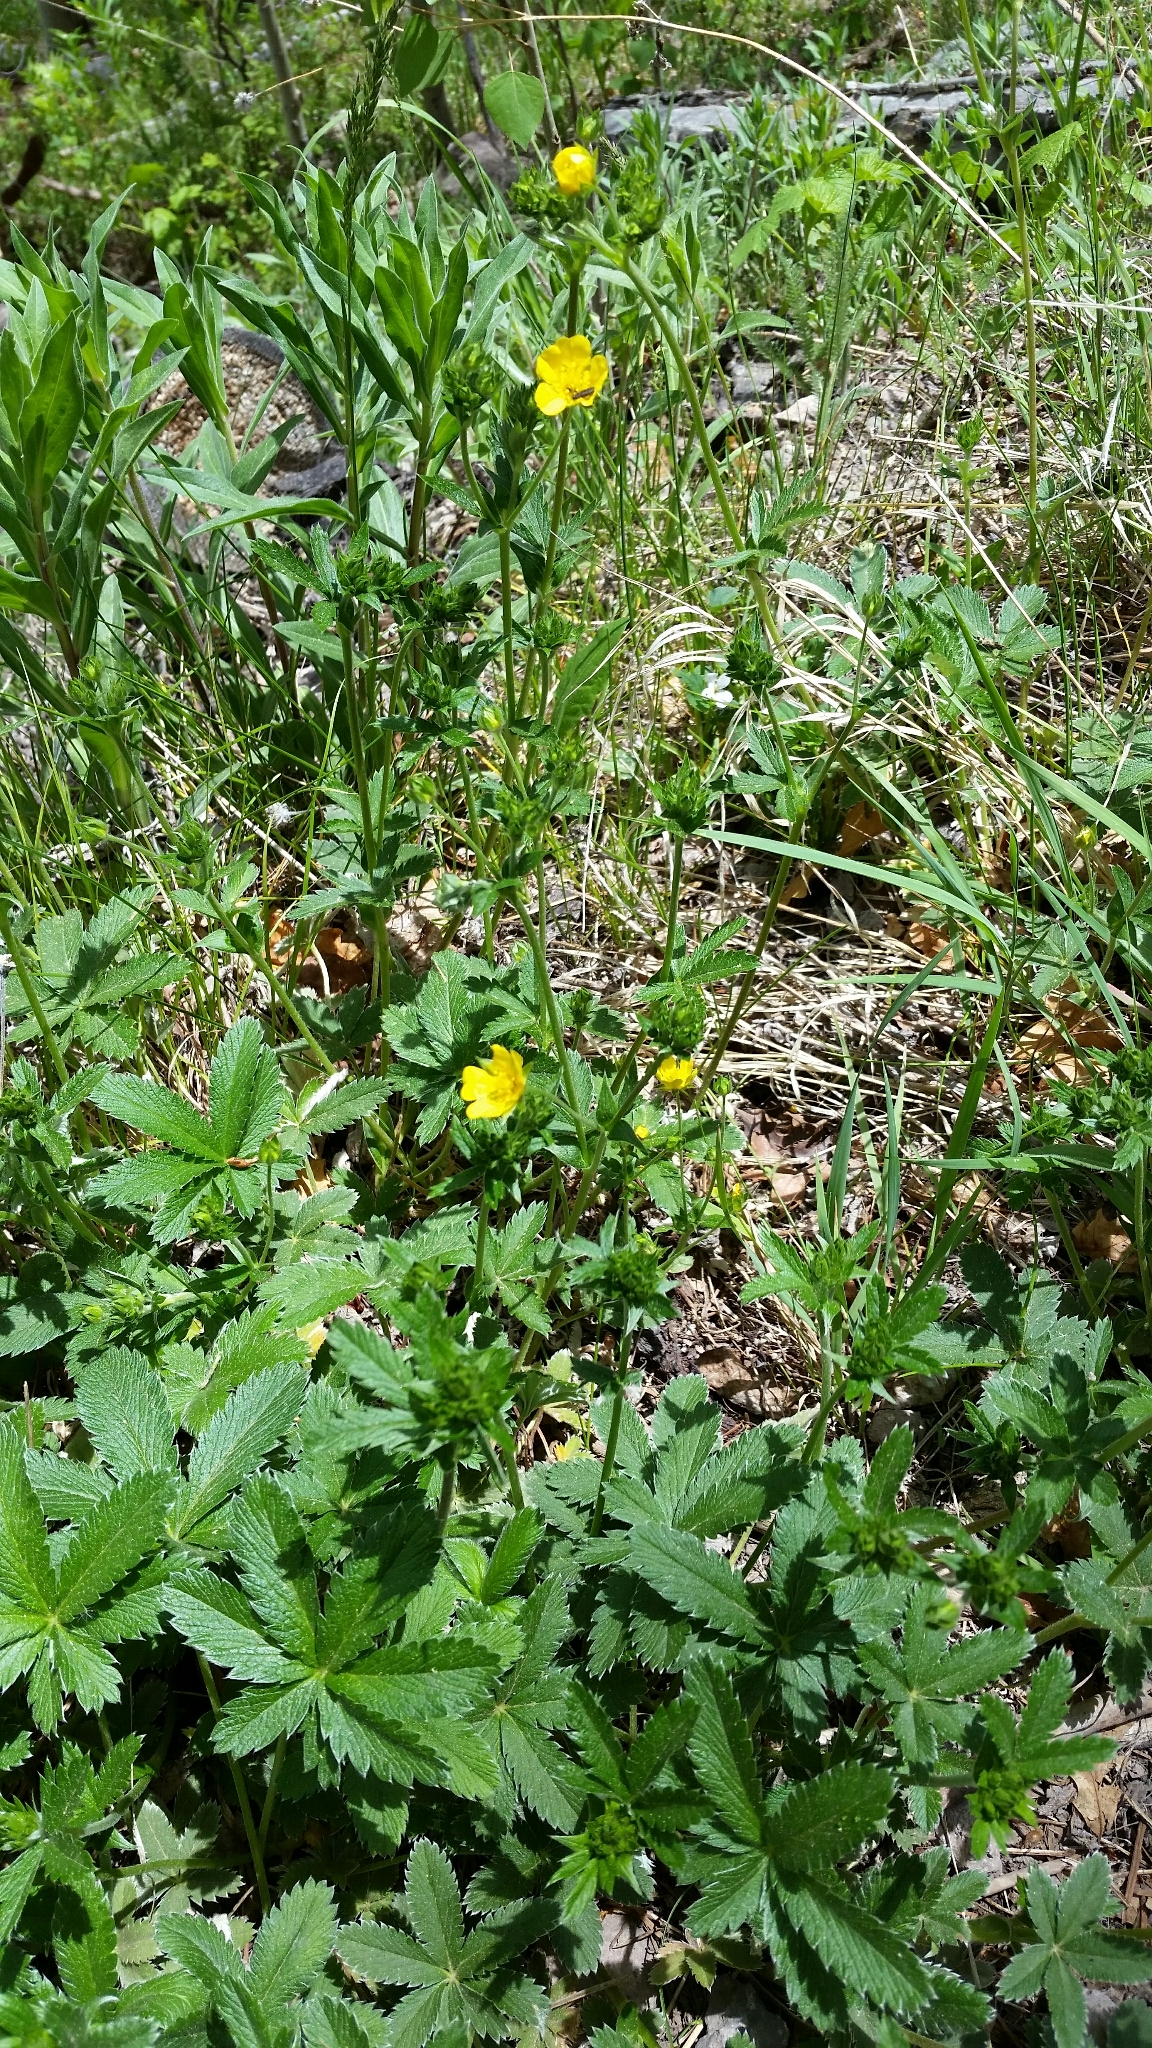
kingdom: Plantae
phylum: Tracheophyta
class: Magnoliopsida
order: Rosales
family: Rosaceae
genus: Potentilla
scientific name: Potentilla pulcherrima
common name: Beautiful cinquefoil
